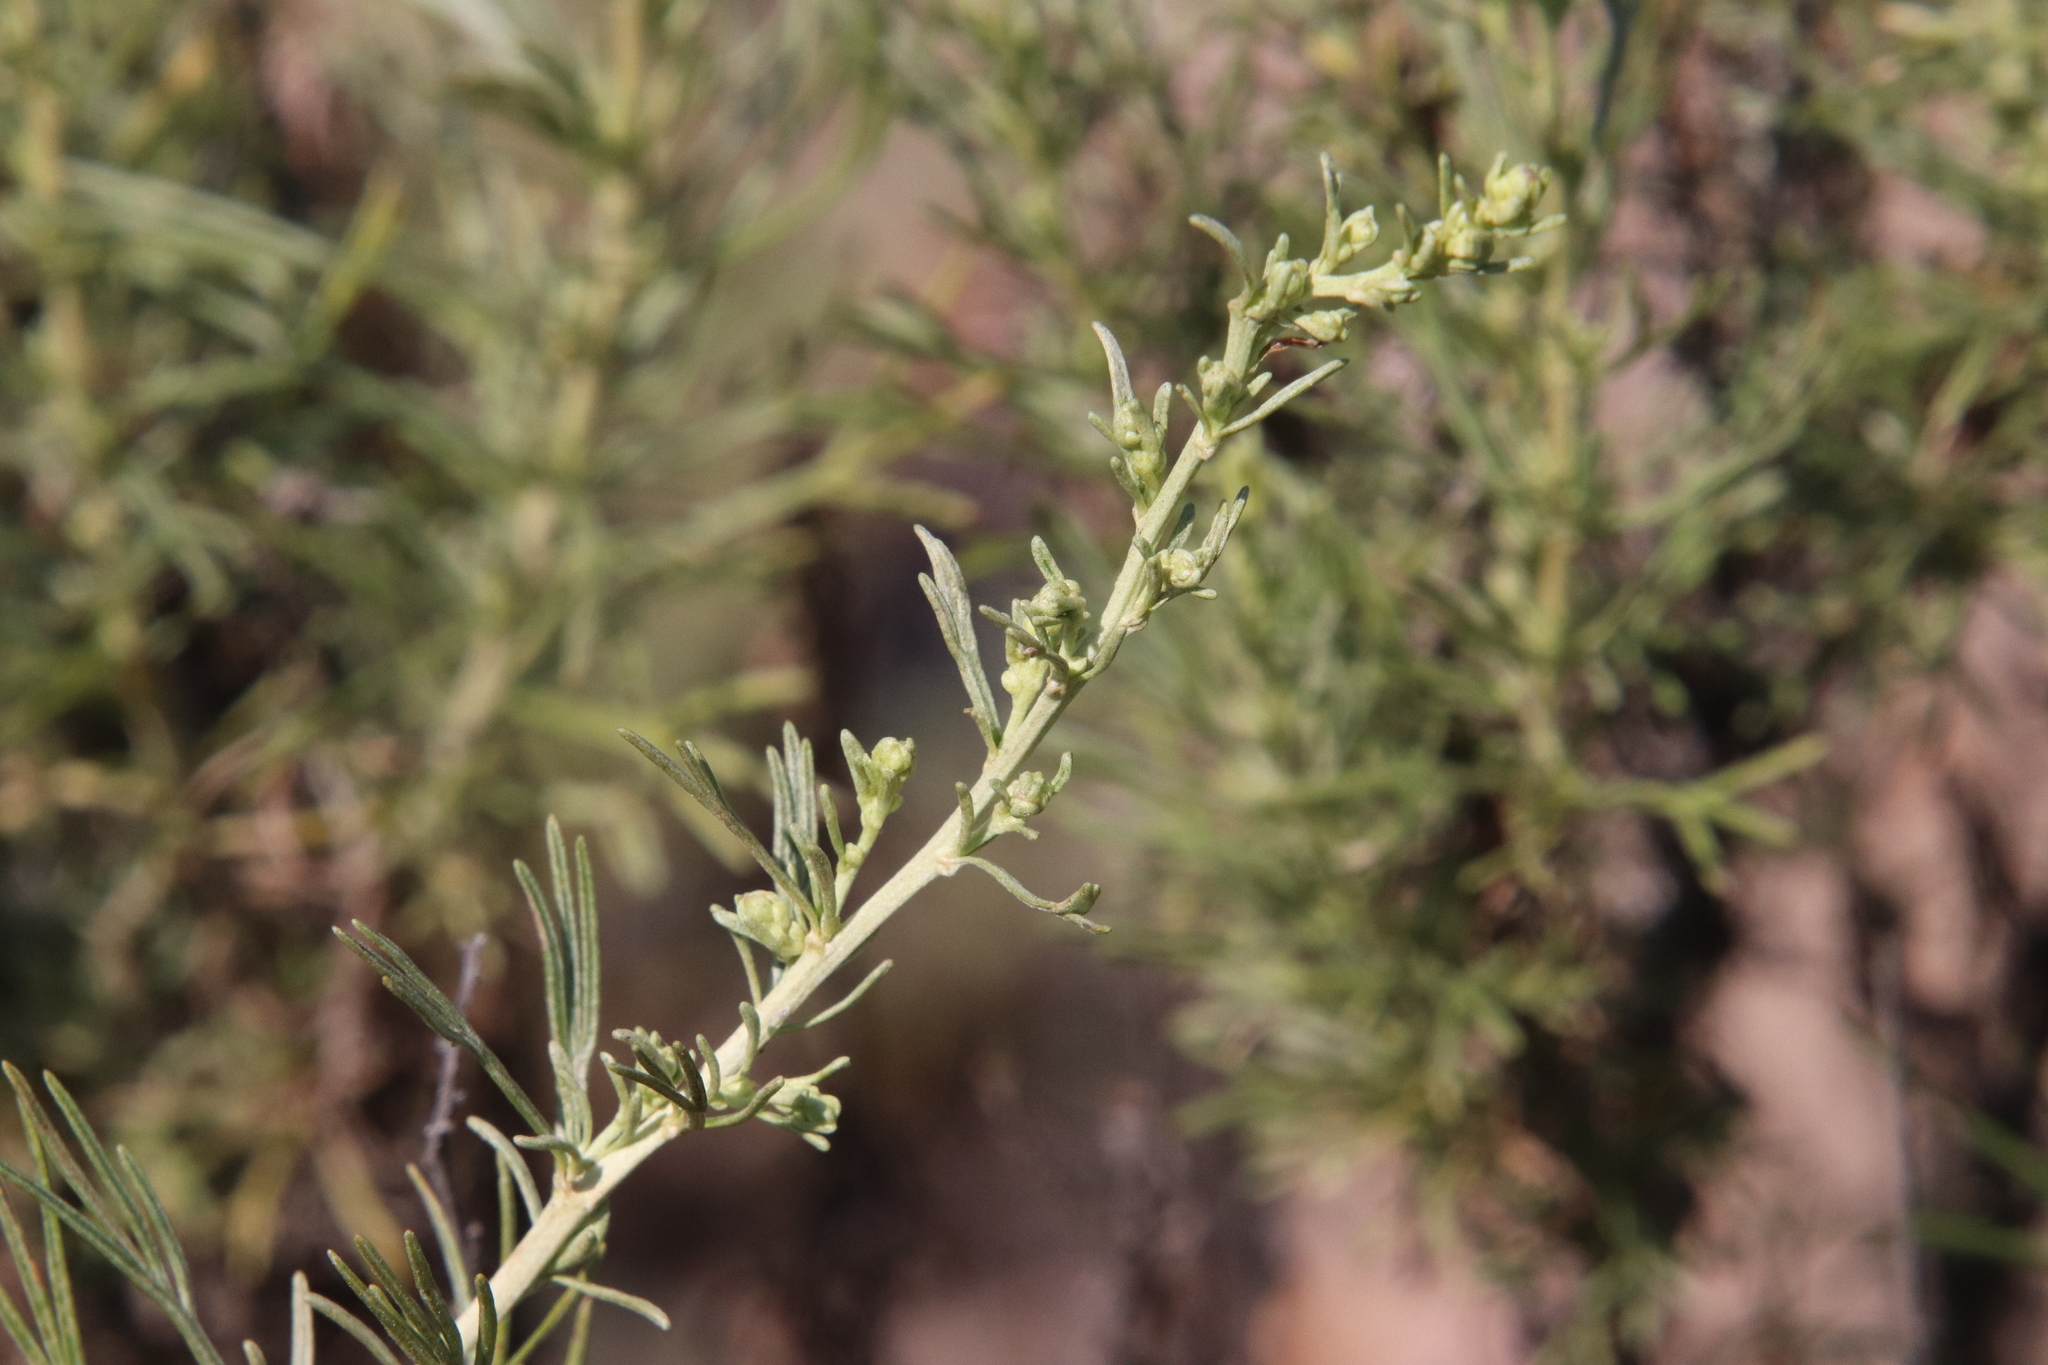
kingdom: Plantae
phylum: Tracheophyta
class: Magnoliopsida
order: Asterales
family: Asteraceae
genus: Artemisia
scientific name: Artemisia californica
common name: California sagebrush
